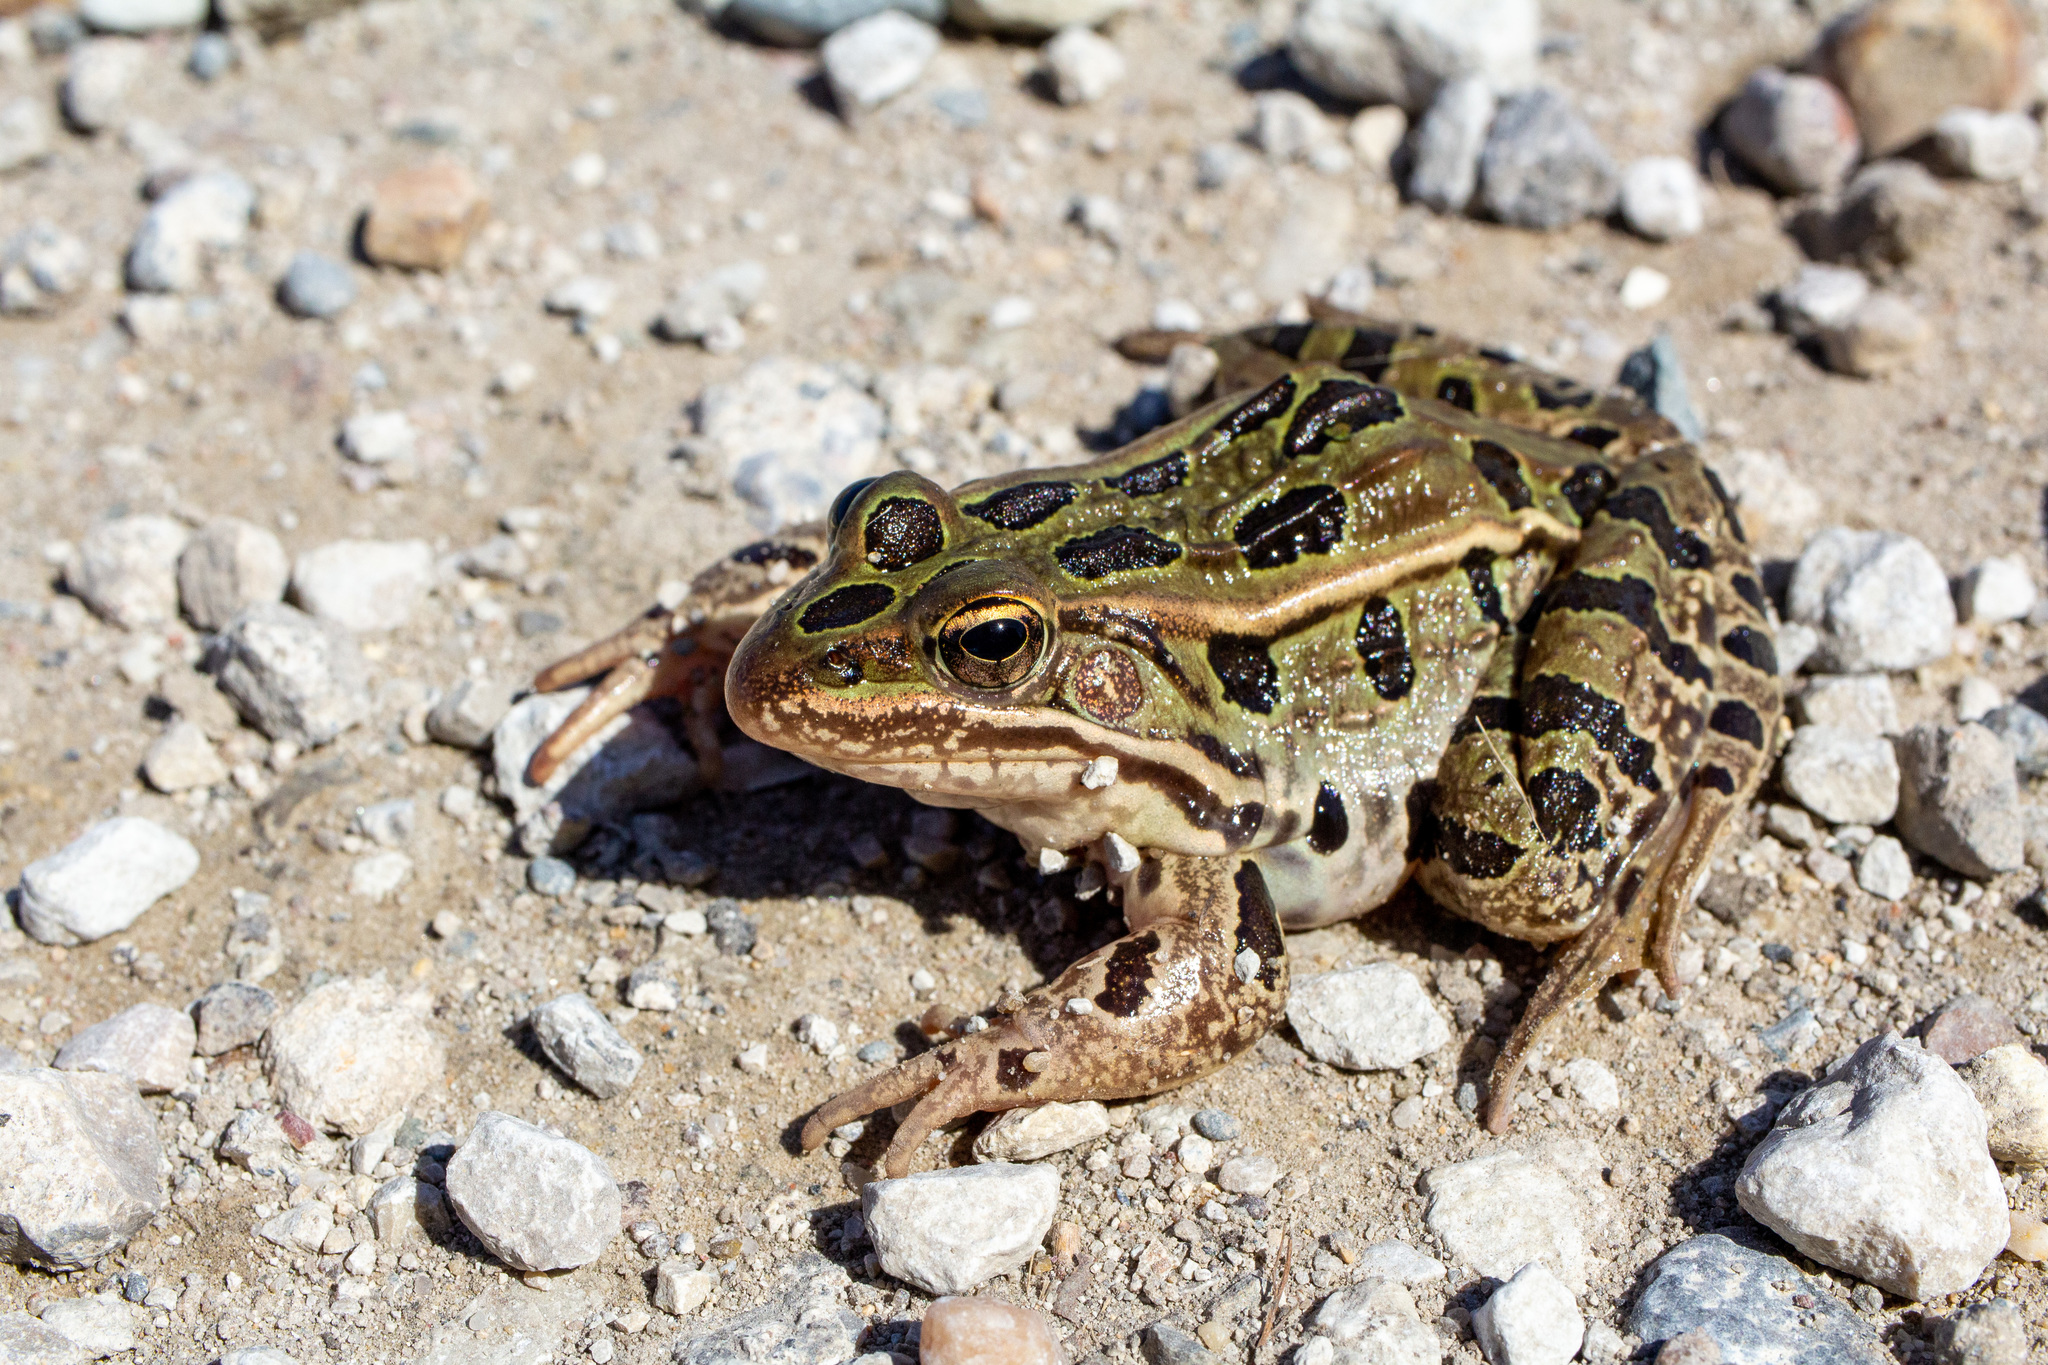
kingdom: Animalia
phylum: Chordata
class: Amphibia
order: Anura
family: Ranidae
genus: Lithobates
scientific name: Lithobates pipiens
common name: Northern leopard frog
